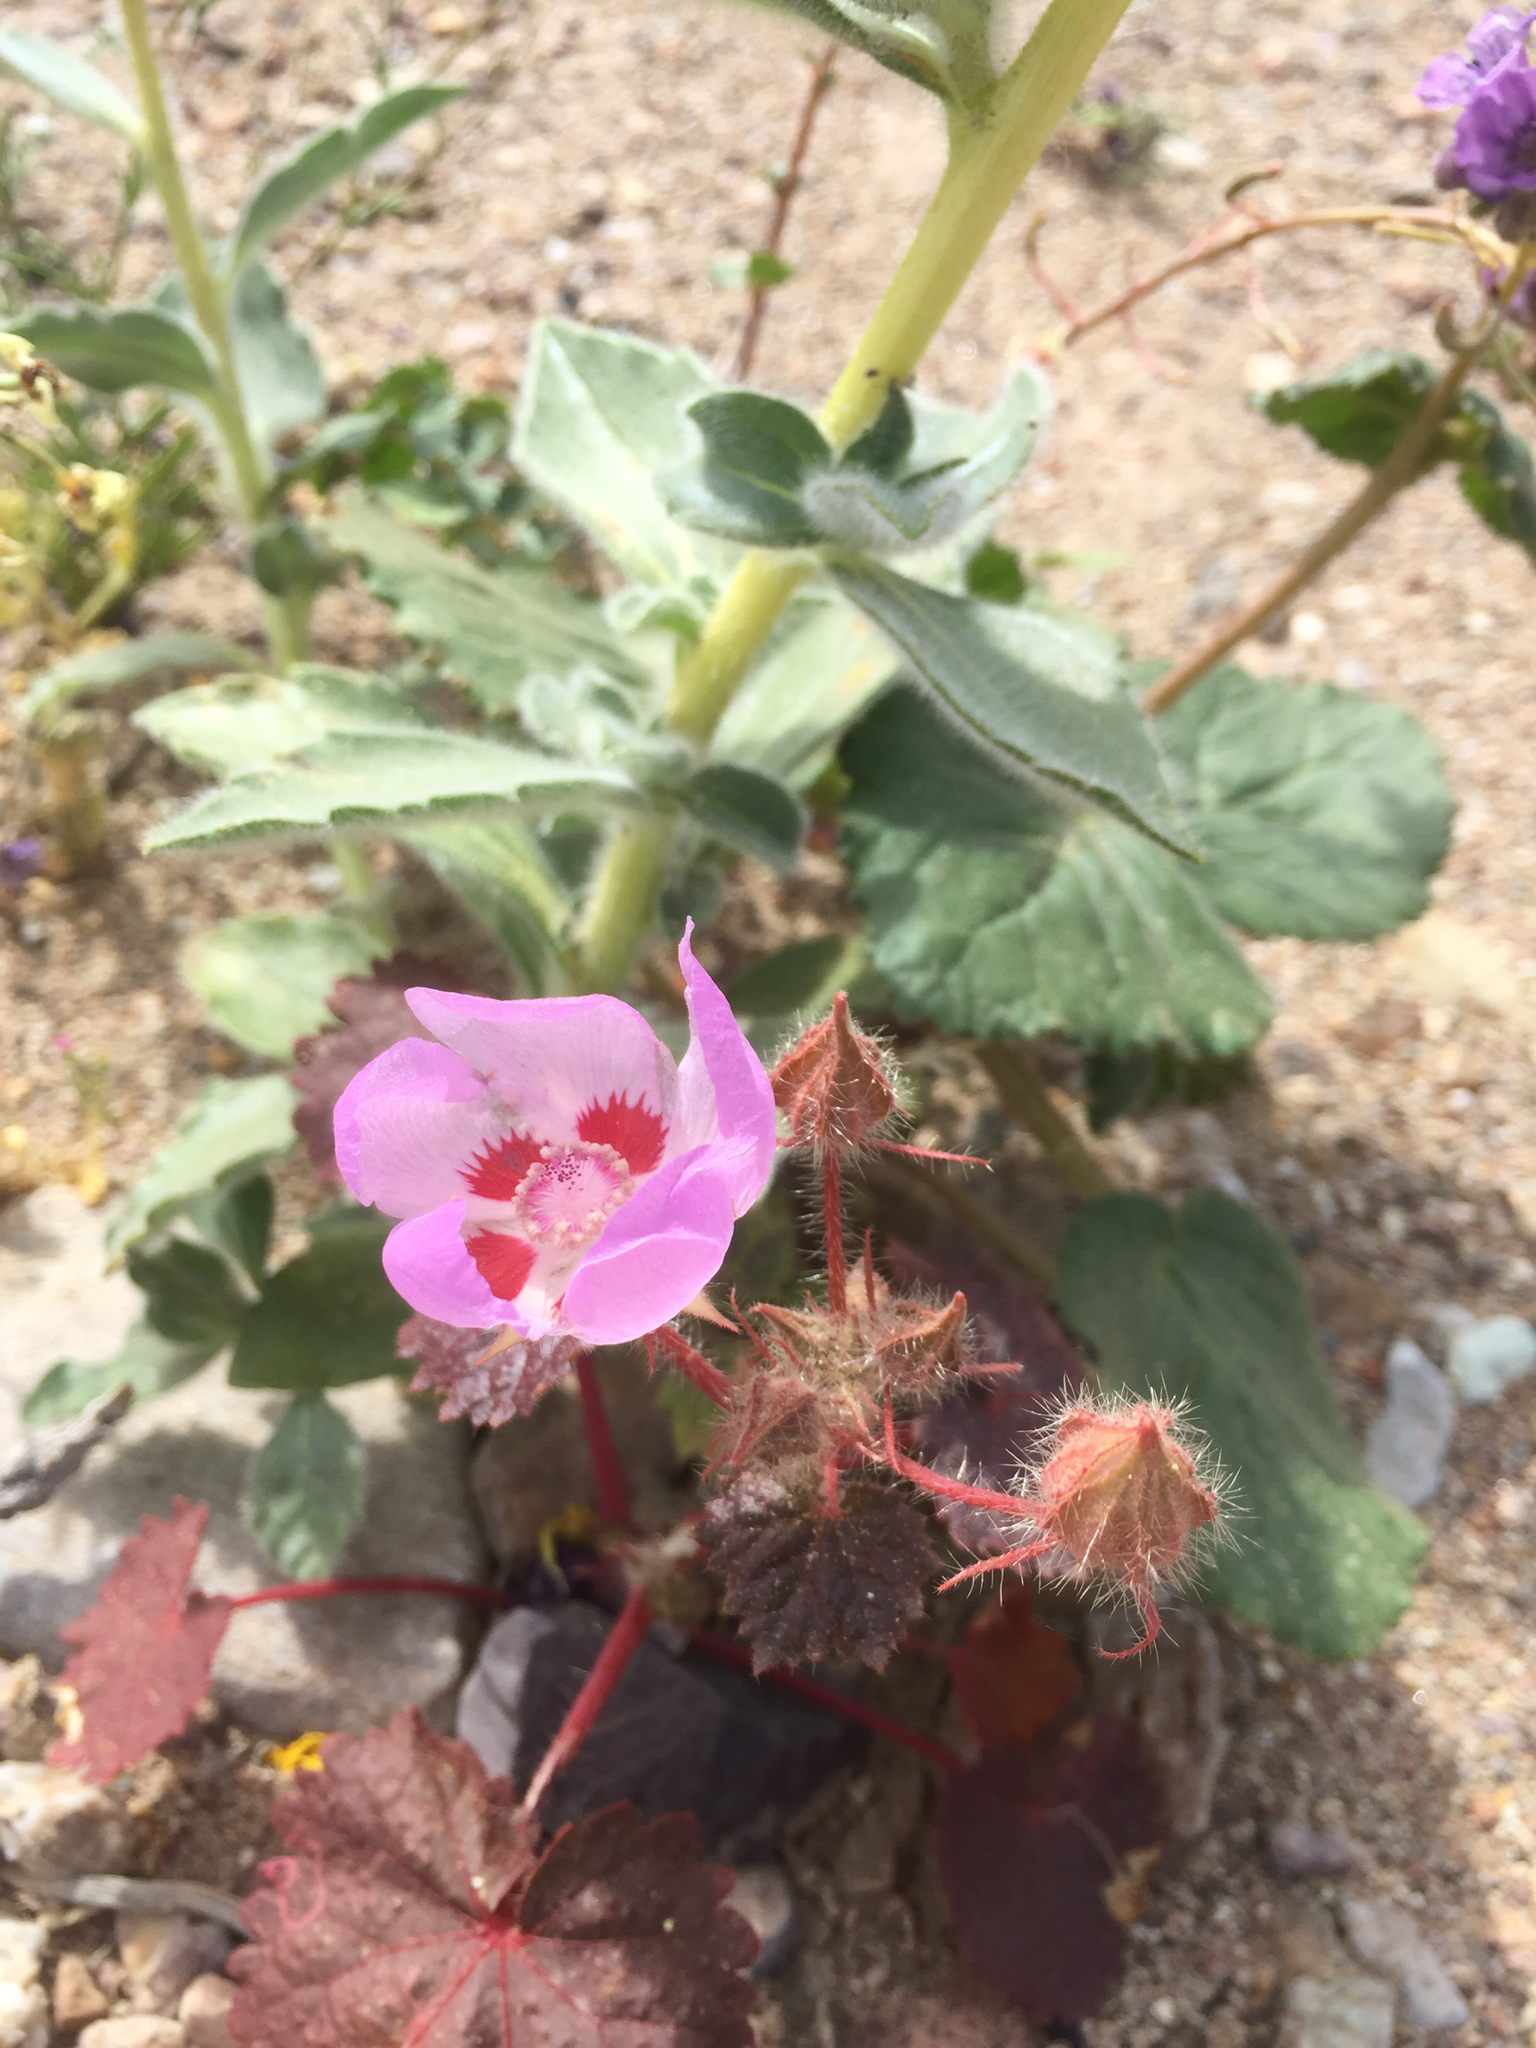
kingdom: Plantae
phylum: Tracheophyta
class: Magnoliopsida
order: Malvales
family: Malvaceae
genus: Eremalche
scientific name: Eremalche rotundifolia
